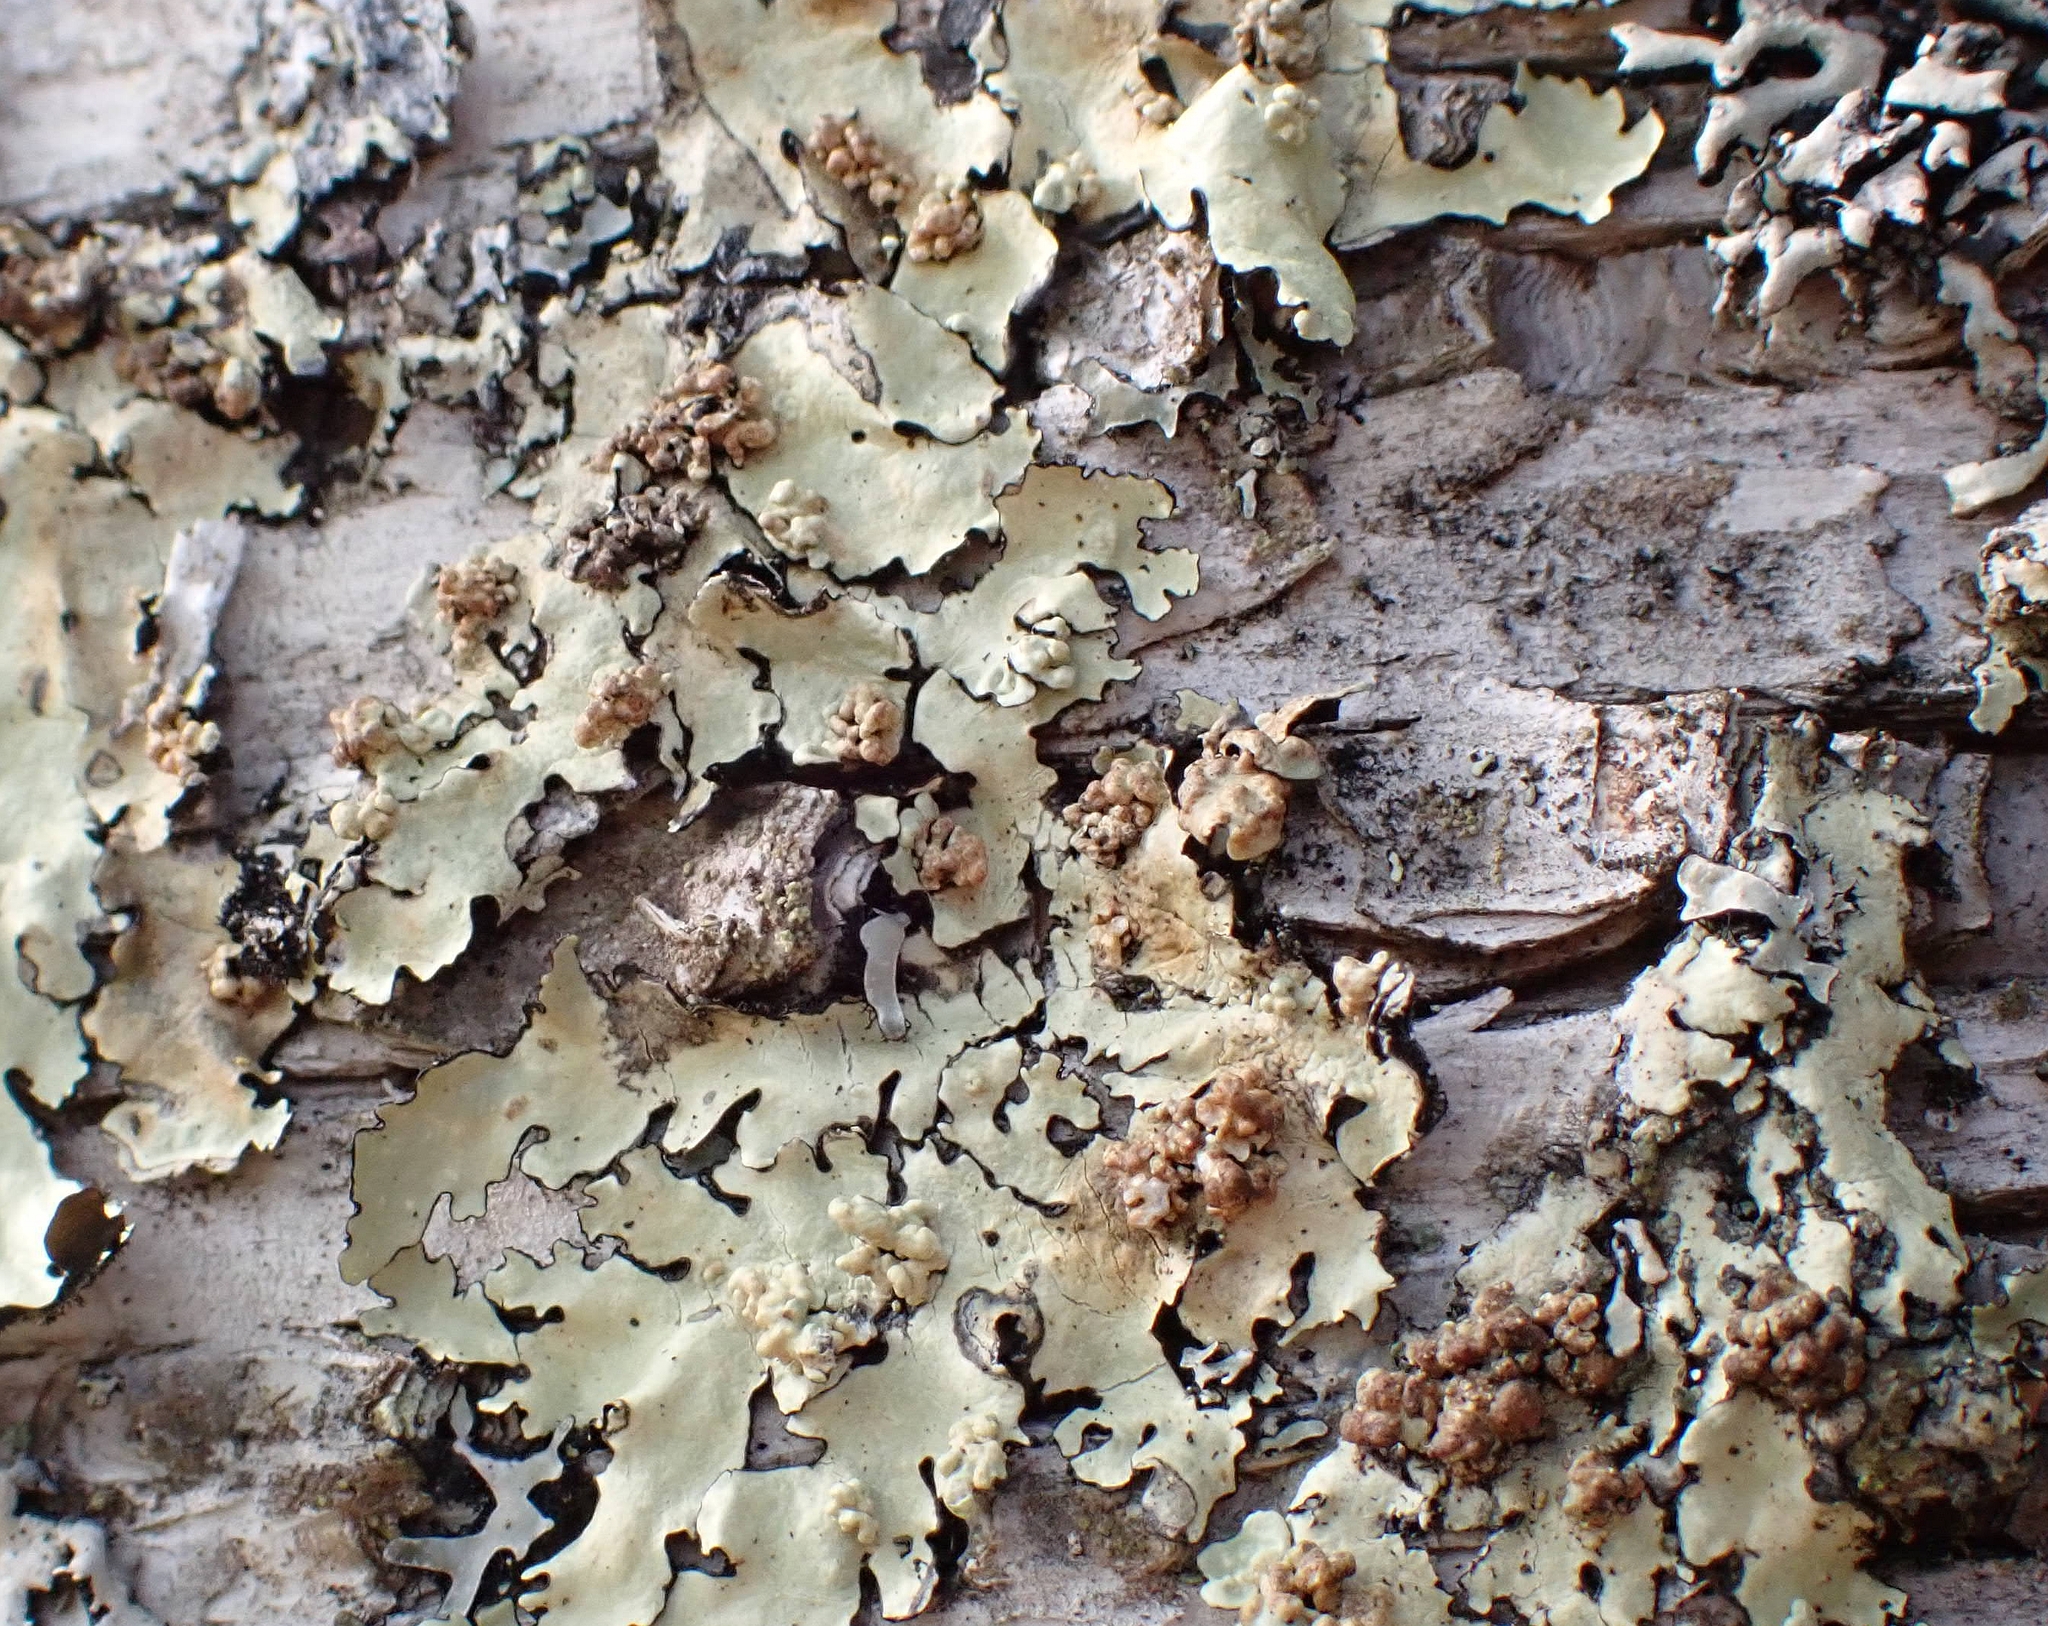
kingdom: Fungi
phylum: Basidiomycota
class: Tremellomycetes
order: Tremellales
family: Tremellaceae
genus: Tremella
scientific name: Tremella flavoparmeliae
